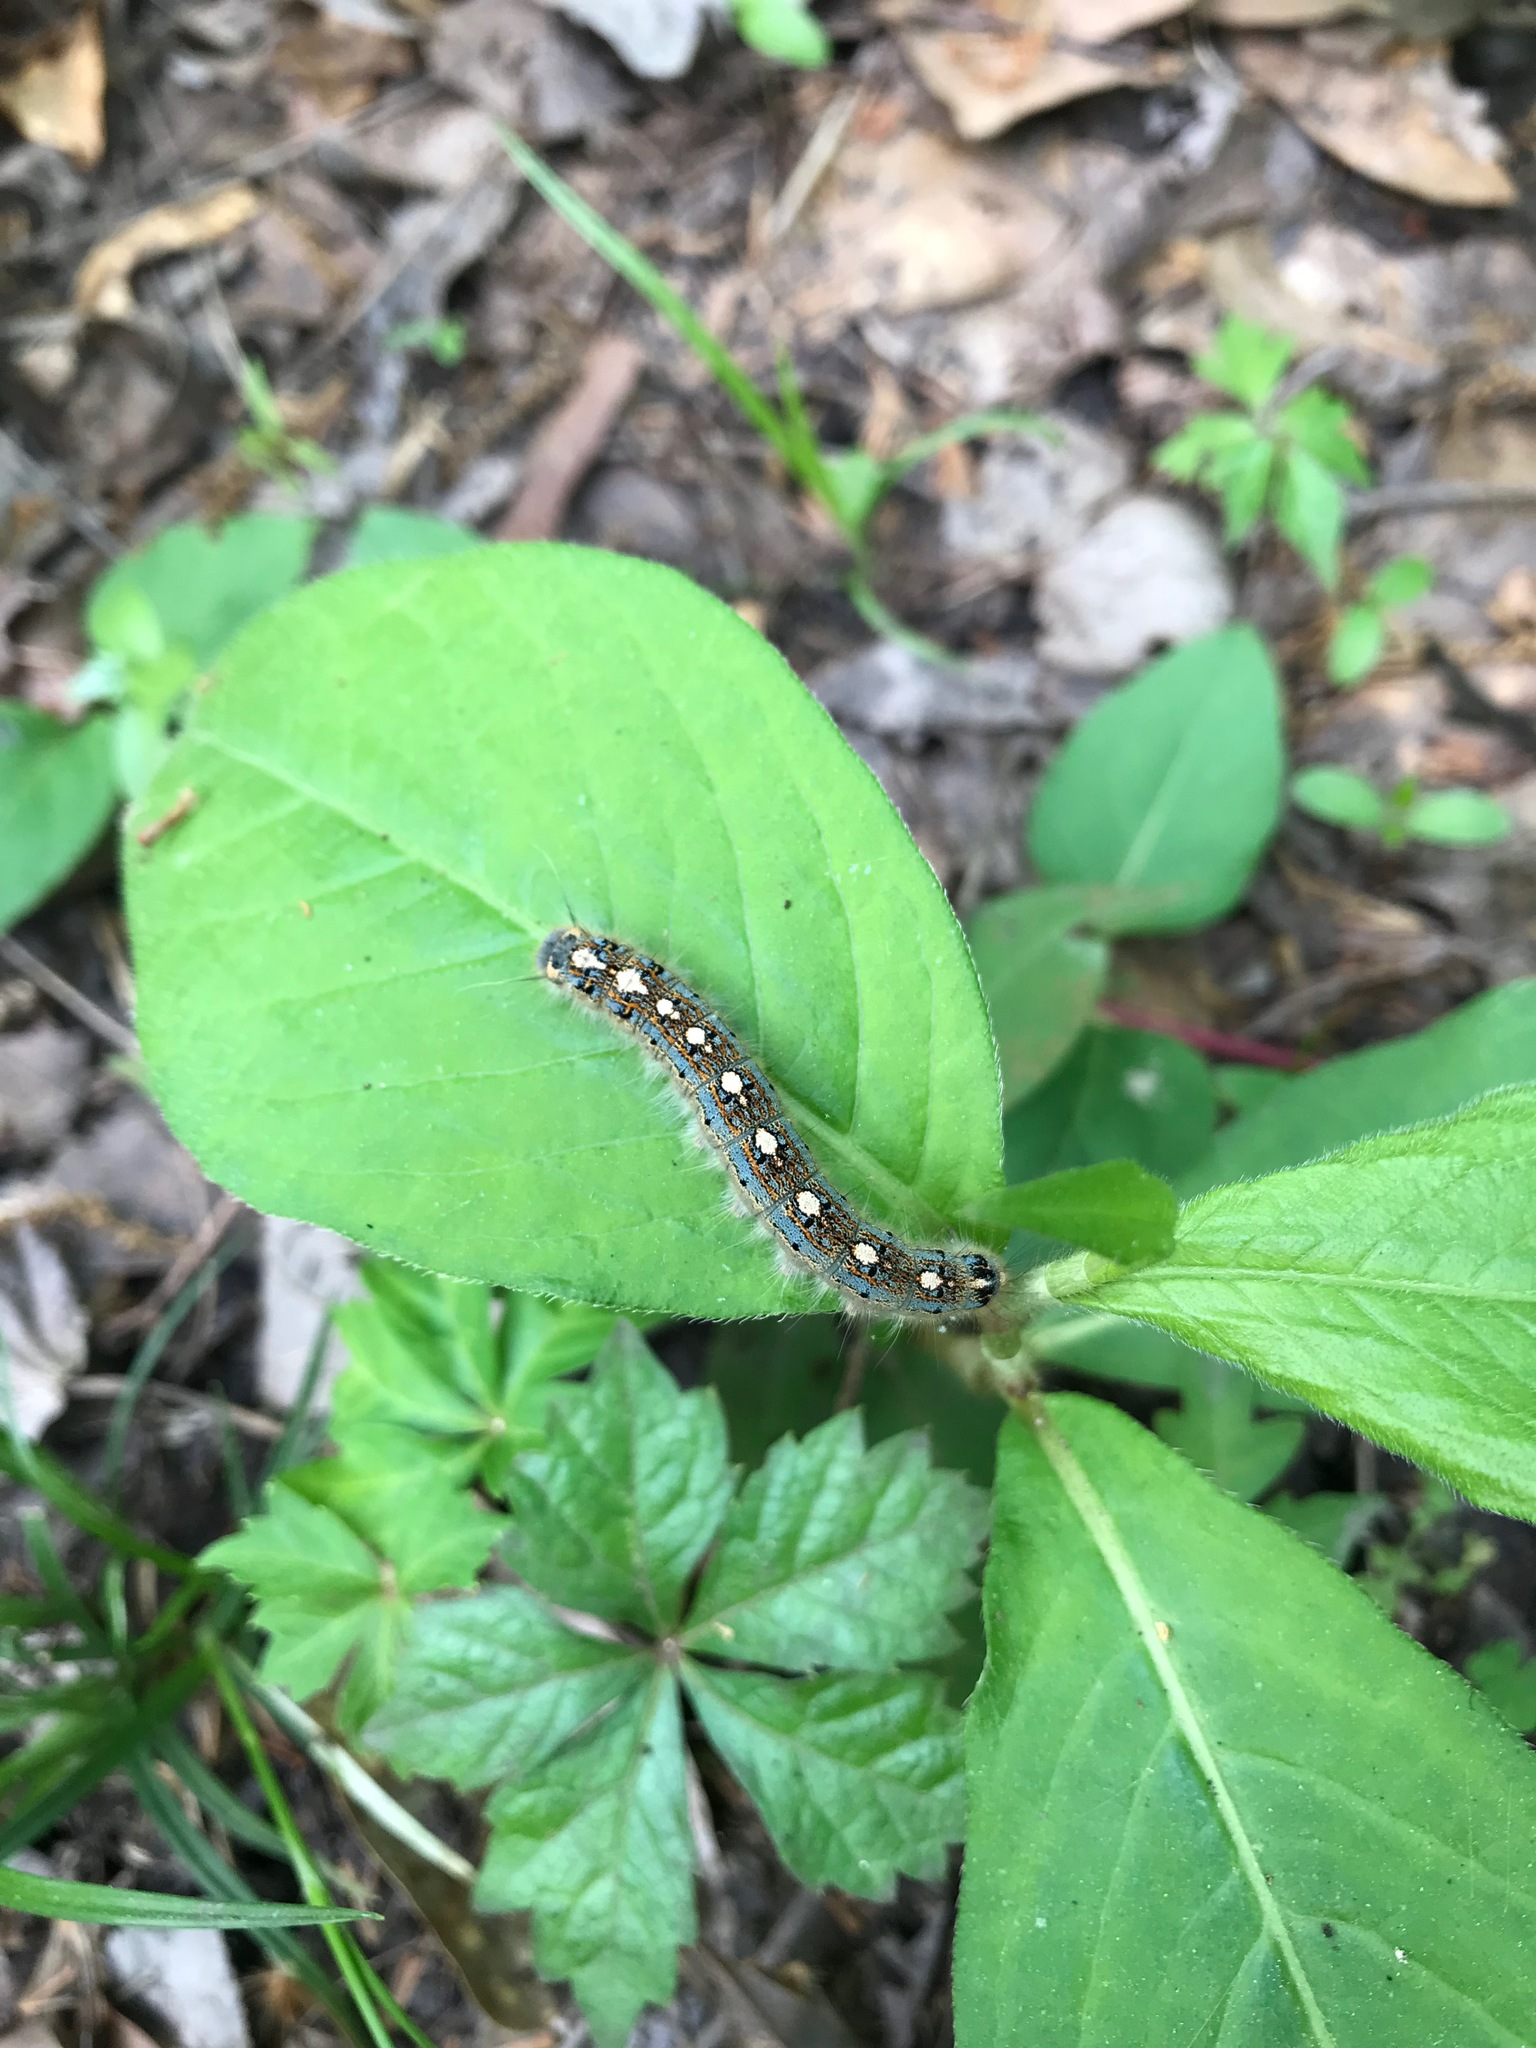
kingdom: Animalia
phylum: Arthropoda
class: Insecta
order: Lepidoptera
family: Lasiocampidae
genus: Malacosoma
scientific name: Malacosoma disstria
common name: Forest tent caterpillar
